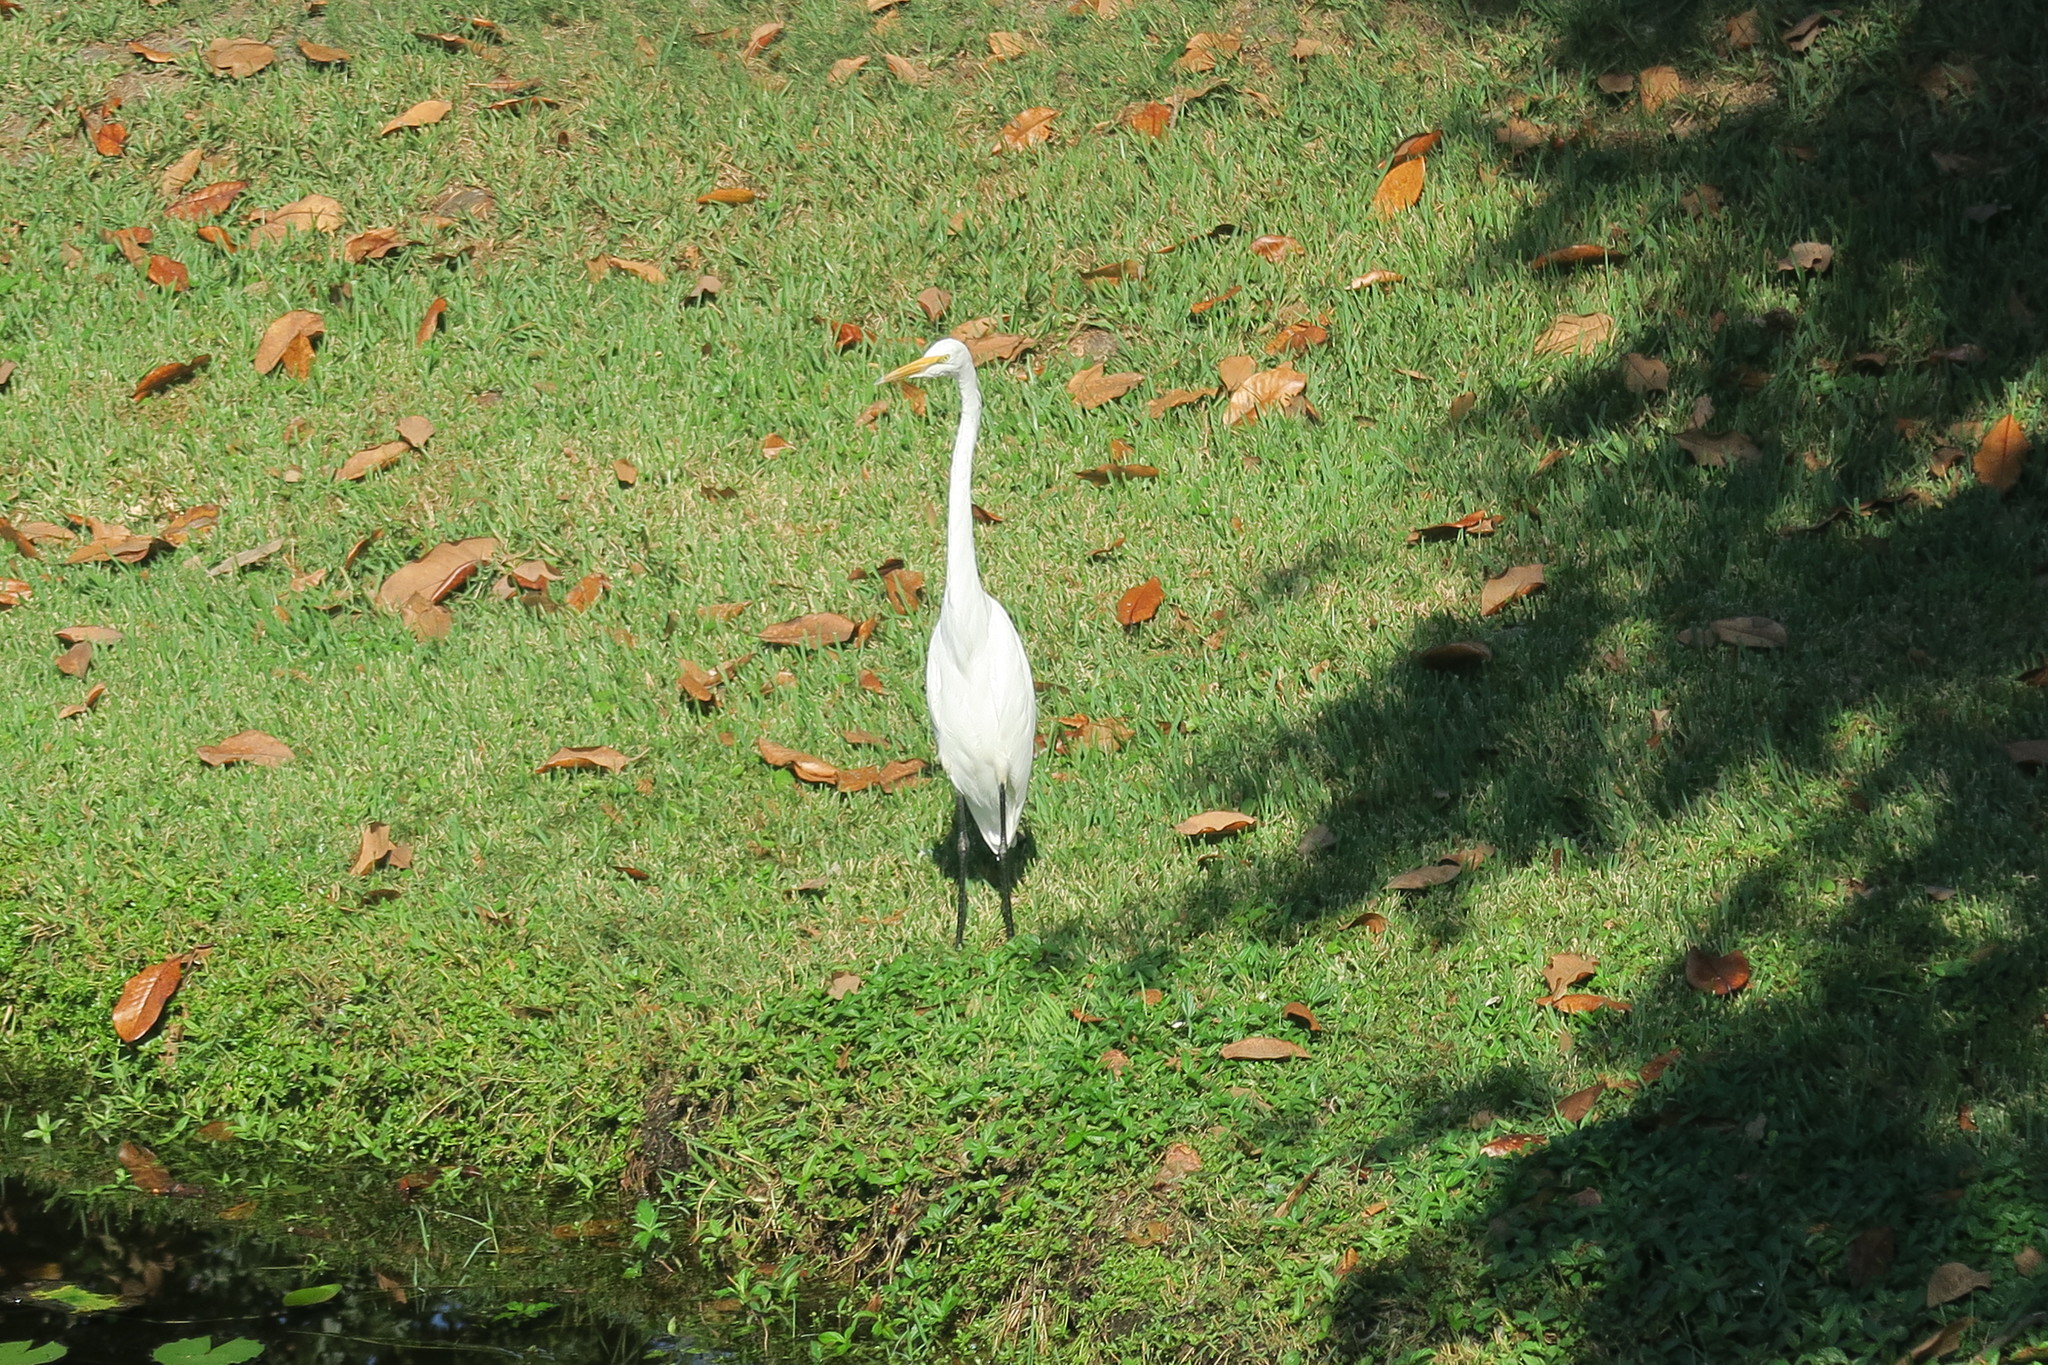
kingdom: Animalia
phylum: Chordata
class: Aves
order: Pelecaniformes
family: Ardeidae
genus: Ardea
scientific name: Ardea alba
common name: Great egret
